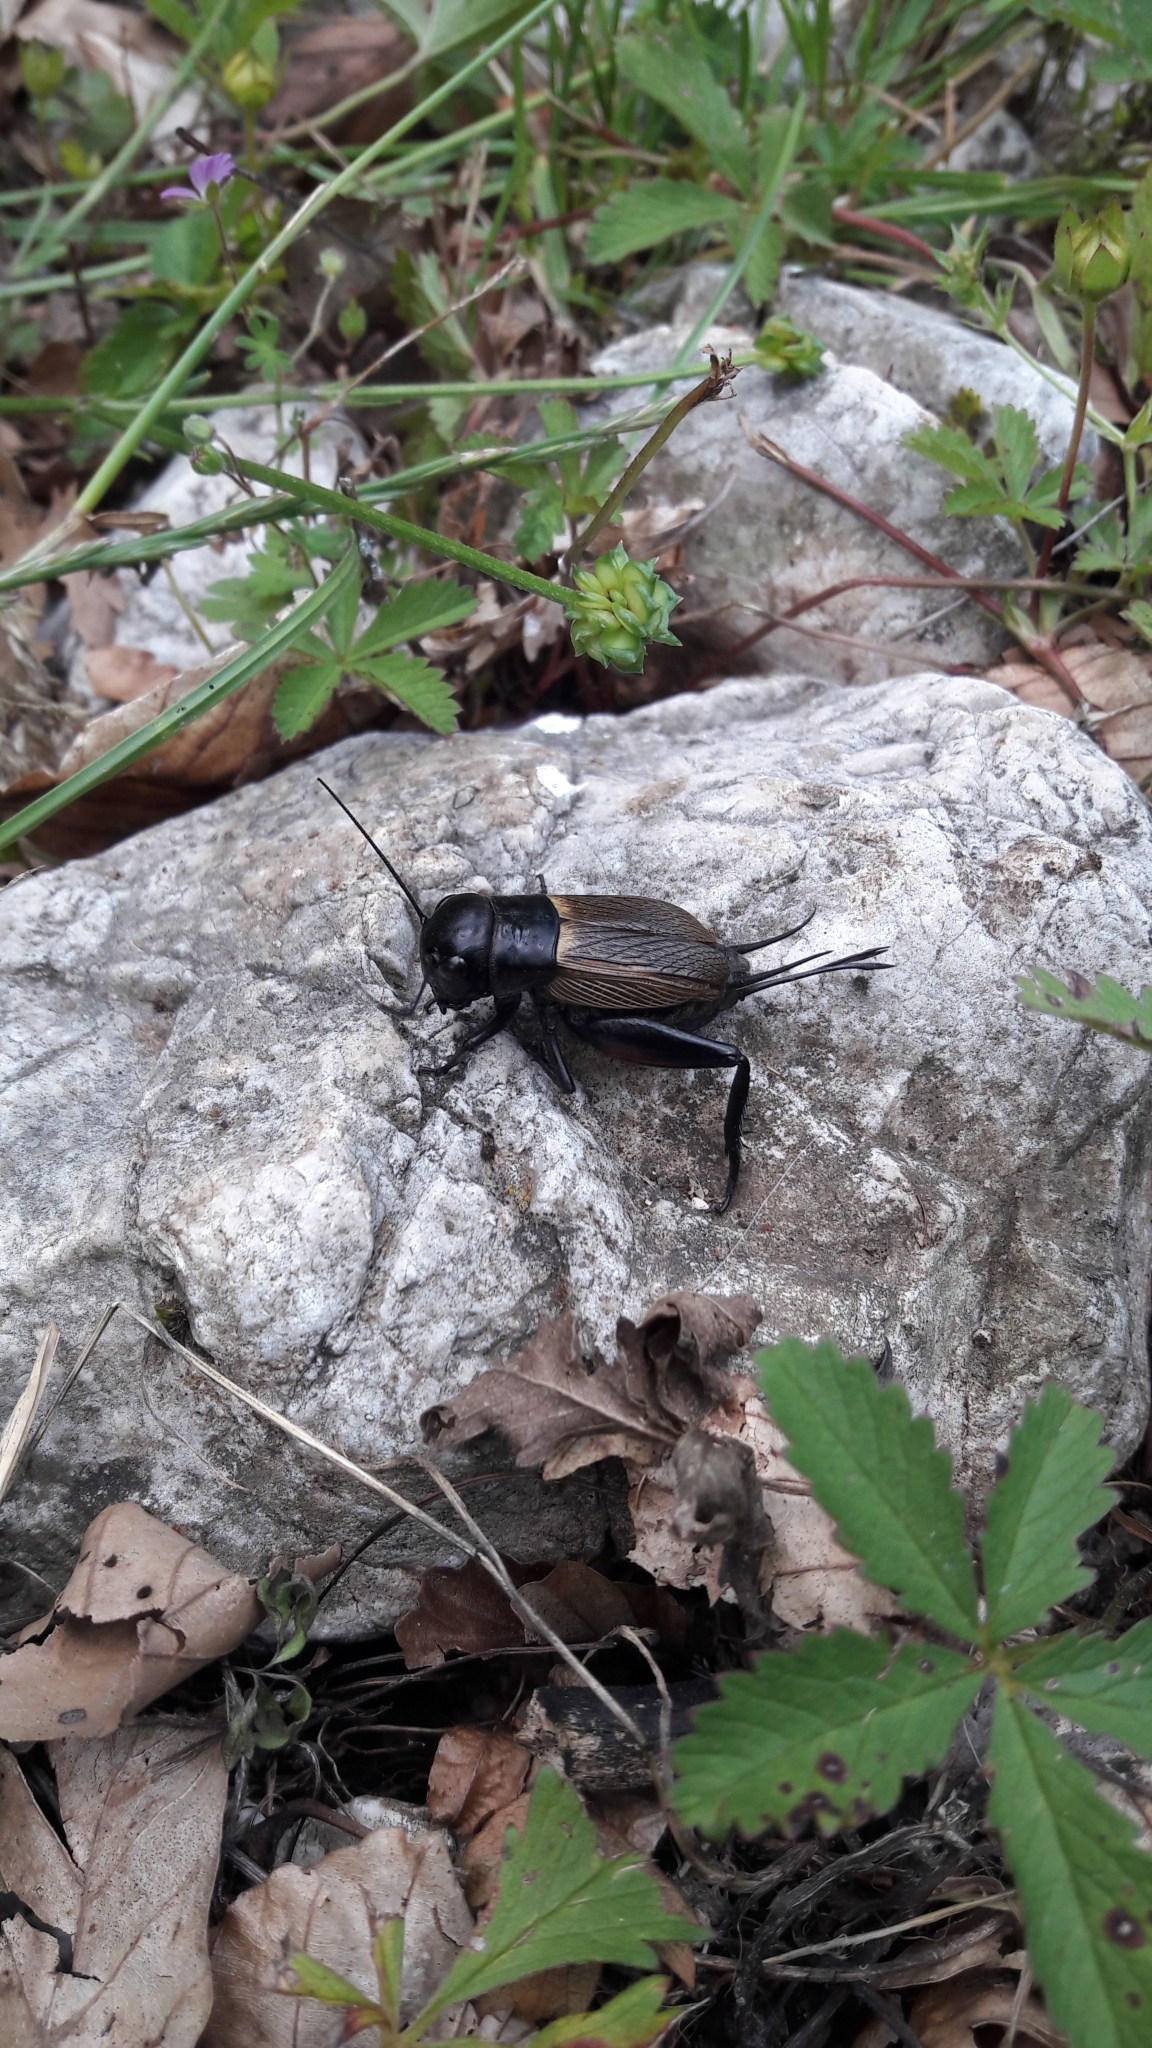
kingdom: Animalia
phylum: Arthropoda
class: Insecta
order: Orthoptera
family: Gryllidae
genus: Gryllus
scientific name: Gryllus campestris
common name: Field cricket
